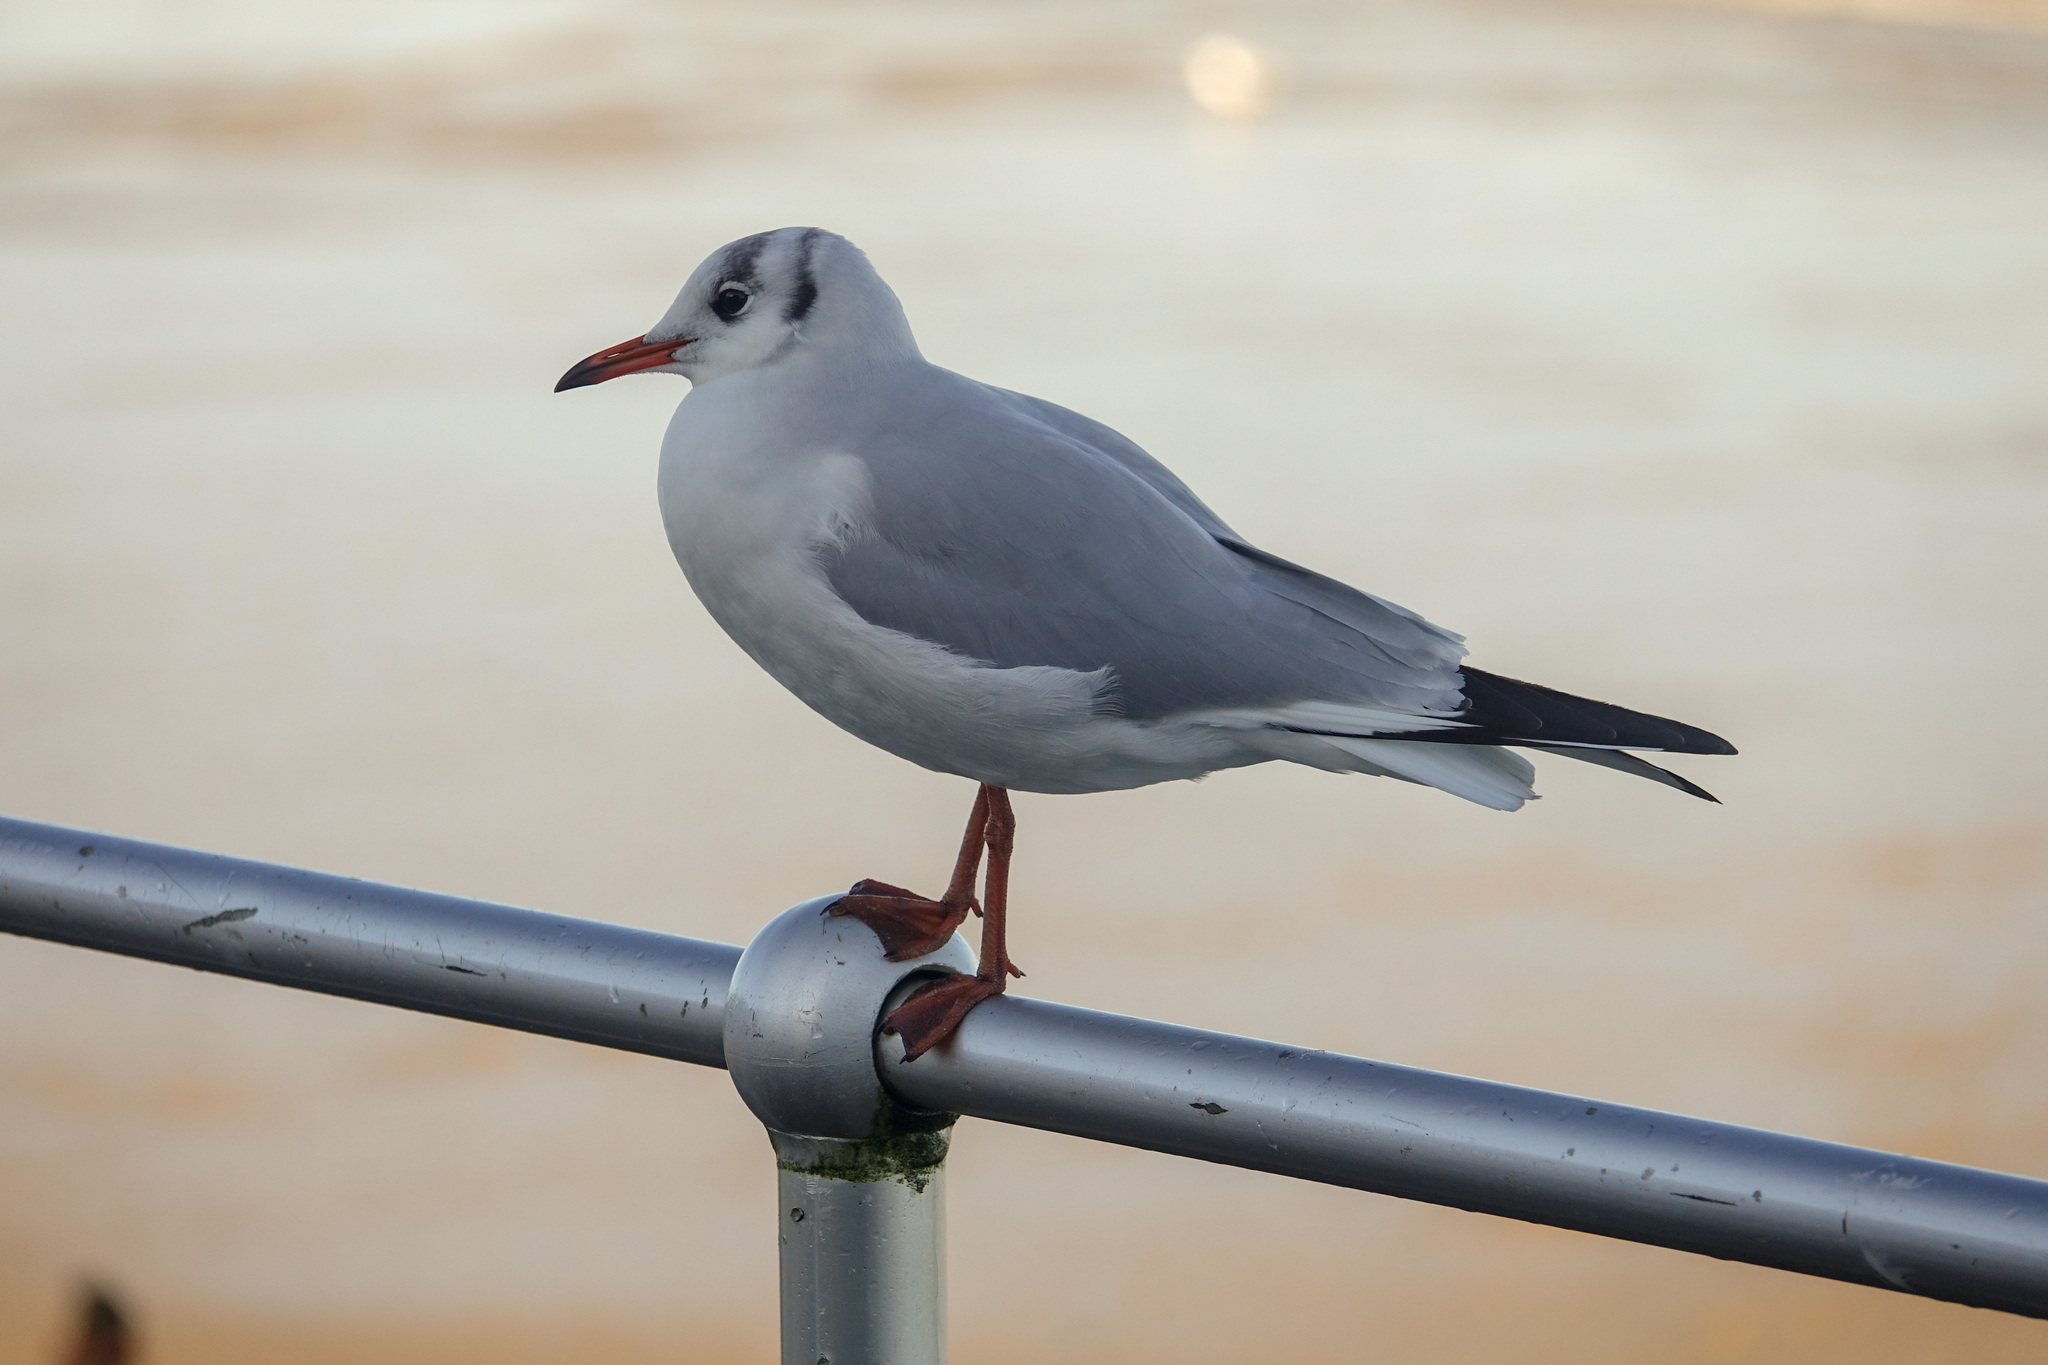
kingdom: Animalia
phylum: Chordata
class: Aves
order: Charadriiformes
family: Laridae
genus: Chroicocephalus
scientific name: Chroicocephalus ridibundus
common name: Black-headed gull
